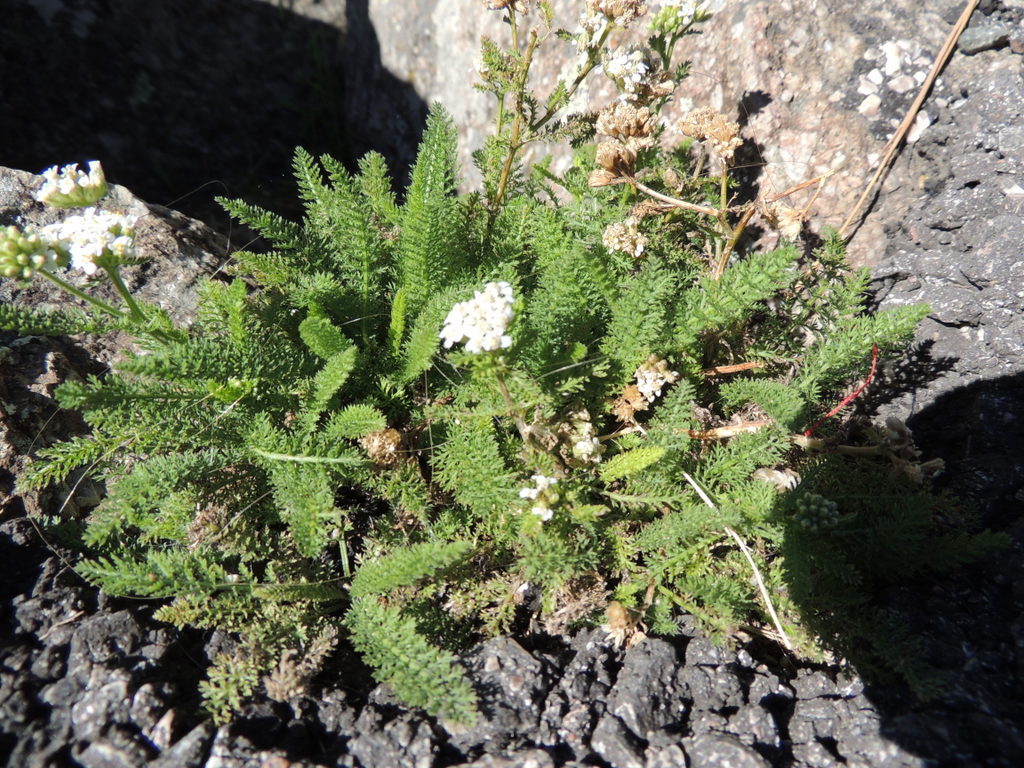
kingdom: Plantae
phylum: Tracheophyta
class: Magnoliopsida
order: Asterales
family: Asteraceae
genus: Achillea
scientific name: Achillea millefolium
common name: Yarrow
